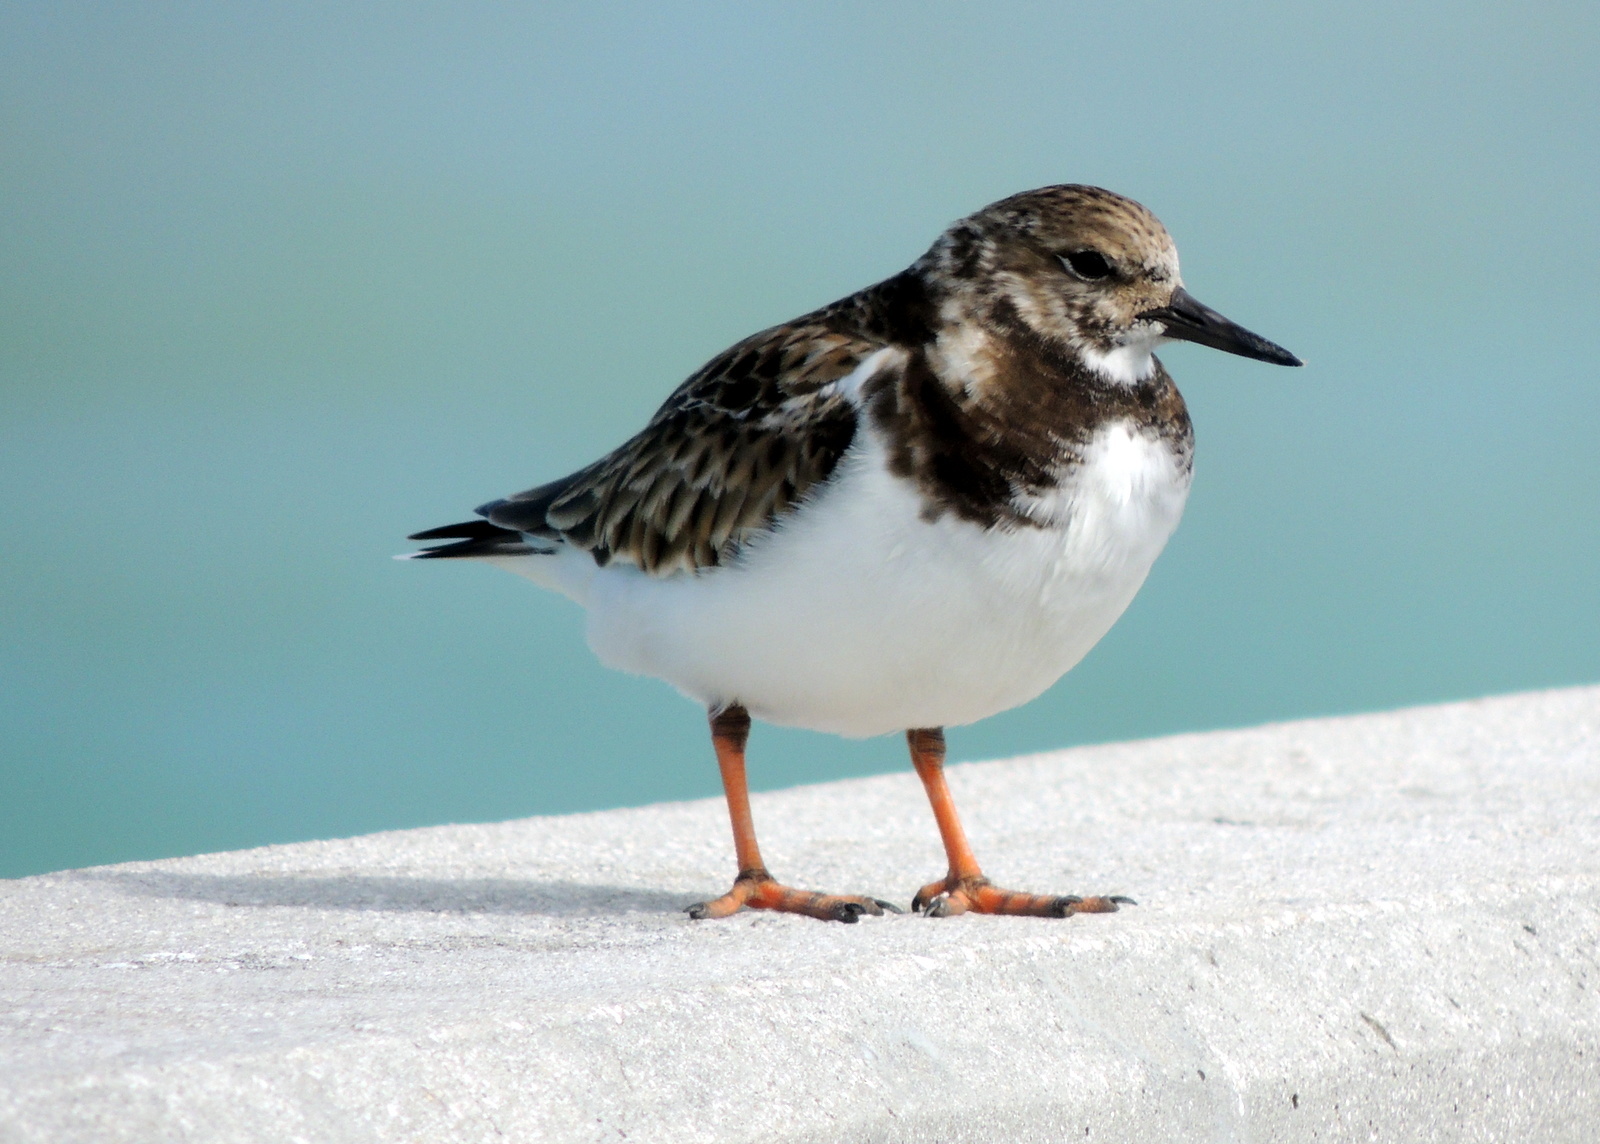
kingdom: Animalia
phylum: Chordata
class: Aves
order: Charadriiformes
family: Scolopacidae
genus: Arenaria
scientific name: Arenaria interpres
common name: Ruddy turnstone
